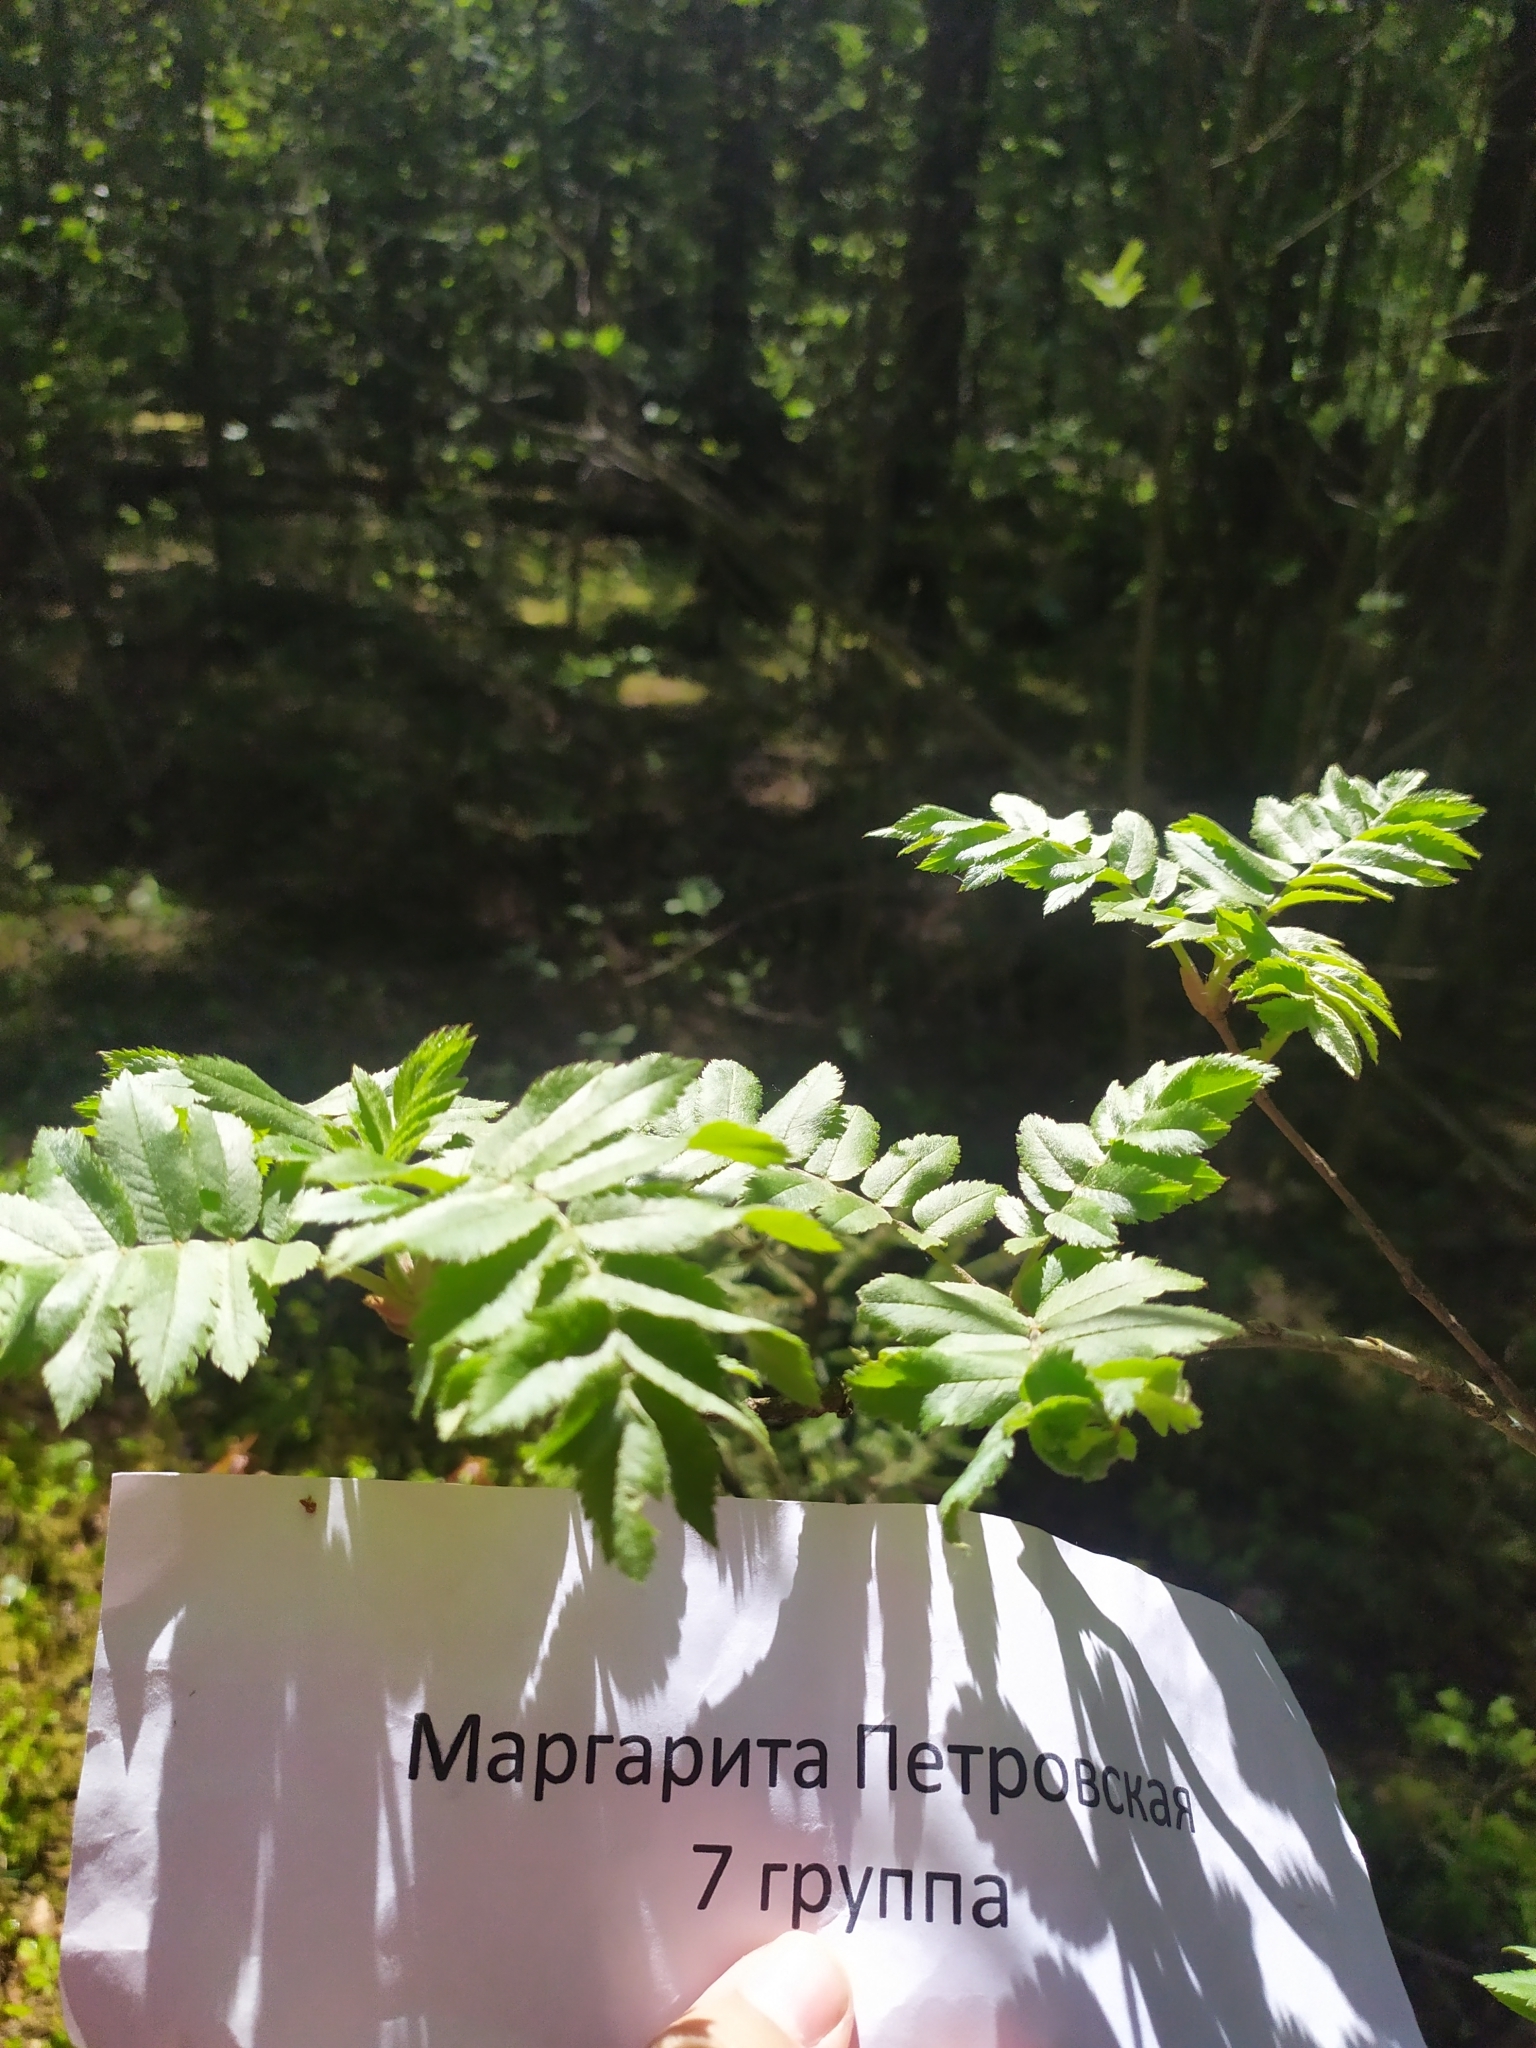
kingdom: Plantae
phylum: Tracheophyta
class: Magnoliopsida
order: Rosales
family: Rosaceae
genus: Sorbus
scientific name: Sorbus aucuparia
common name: Rowan
